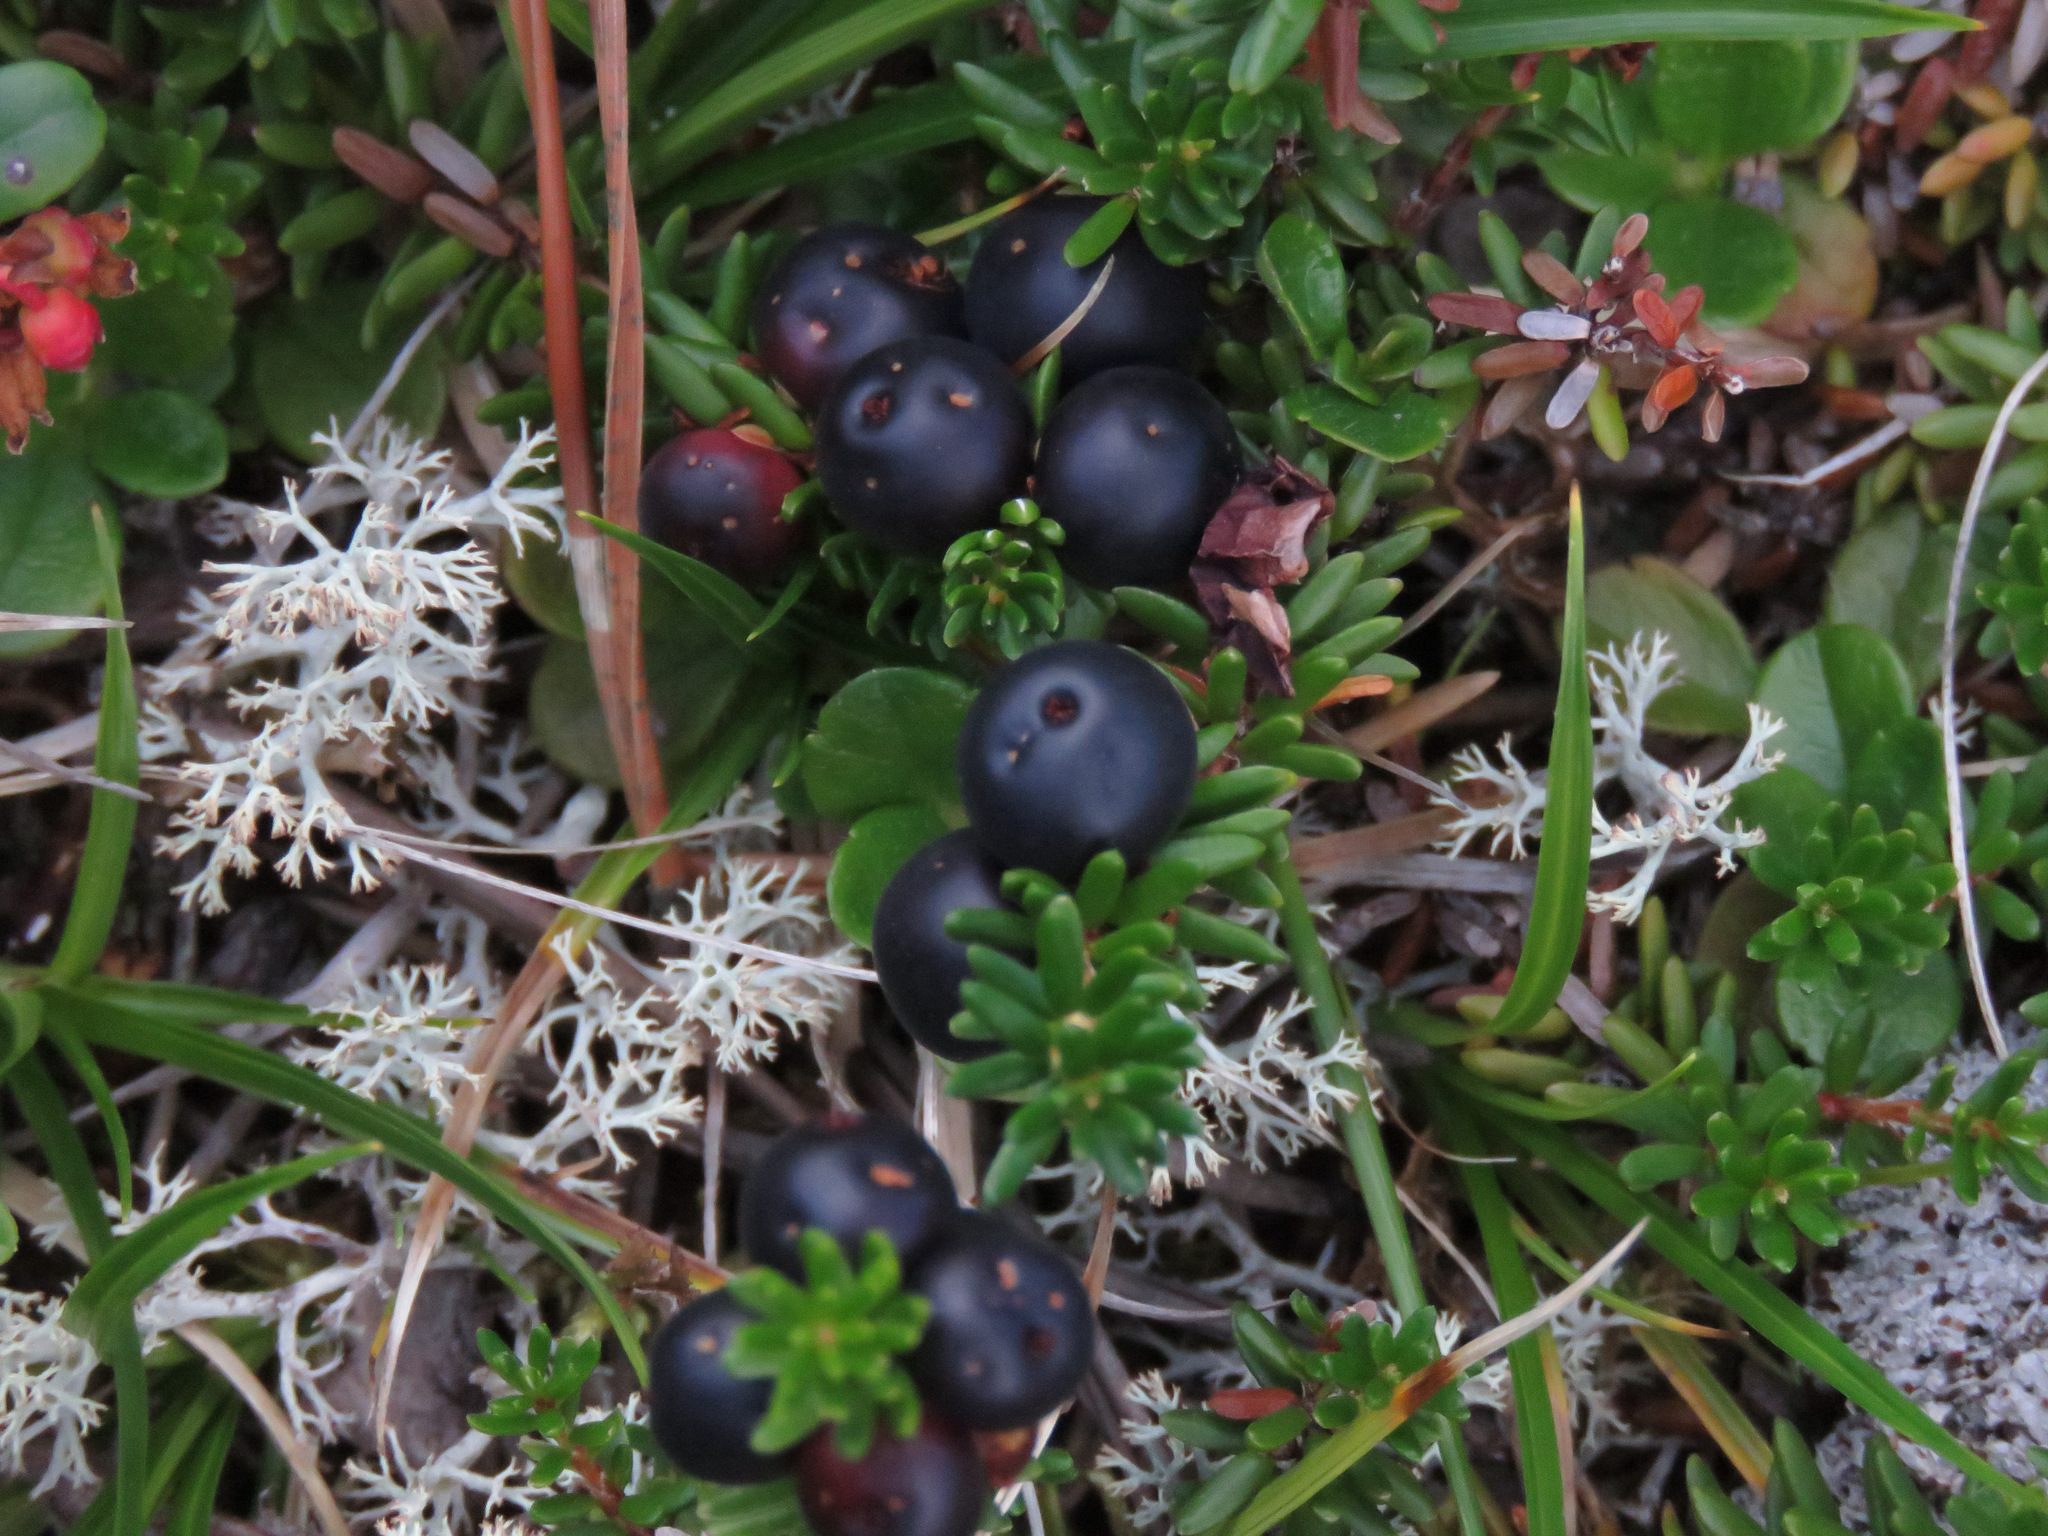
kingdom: Plantae
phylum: Tracheophyta
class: Magnoliopsida
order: Ericales
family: Ericaceae
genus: Empetrum
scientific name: Empetrum nigrum
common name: Black crowberry
